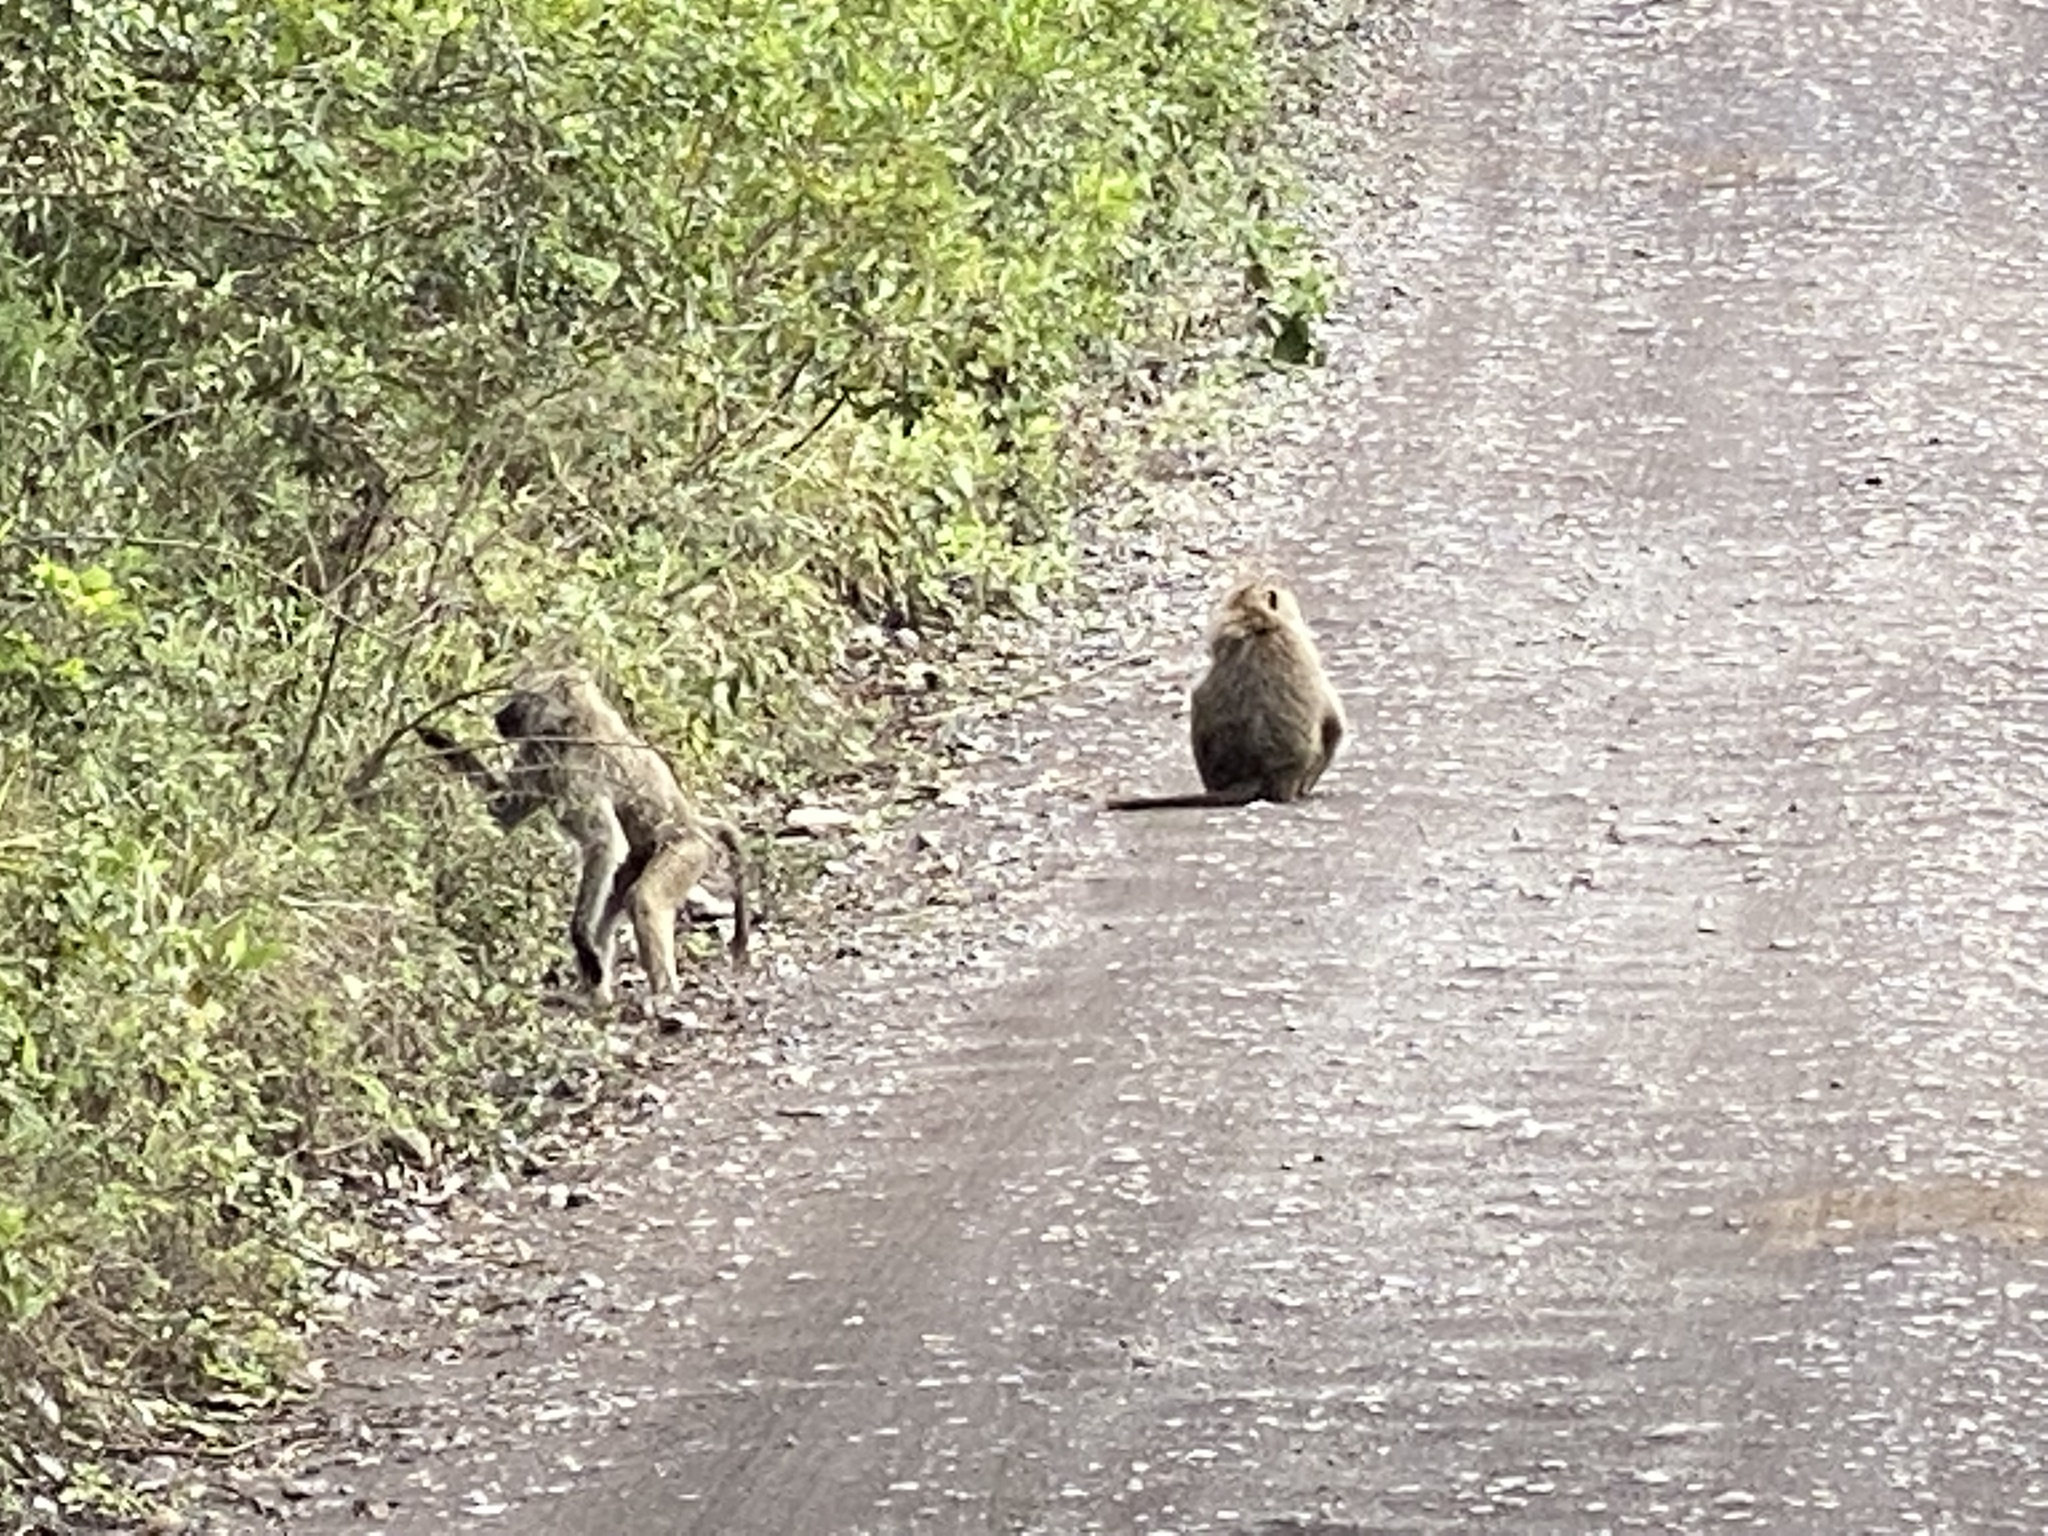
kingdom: Animalia
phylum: Chordata
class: Mammalia
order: Primates
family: Cercopithecidae
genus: Papio
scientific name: Papio anubis
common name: Olive baboon
